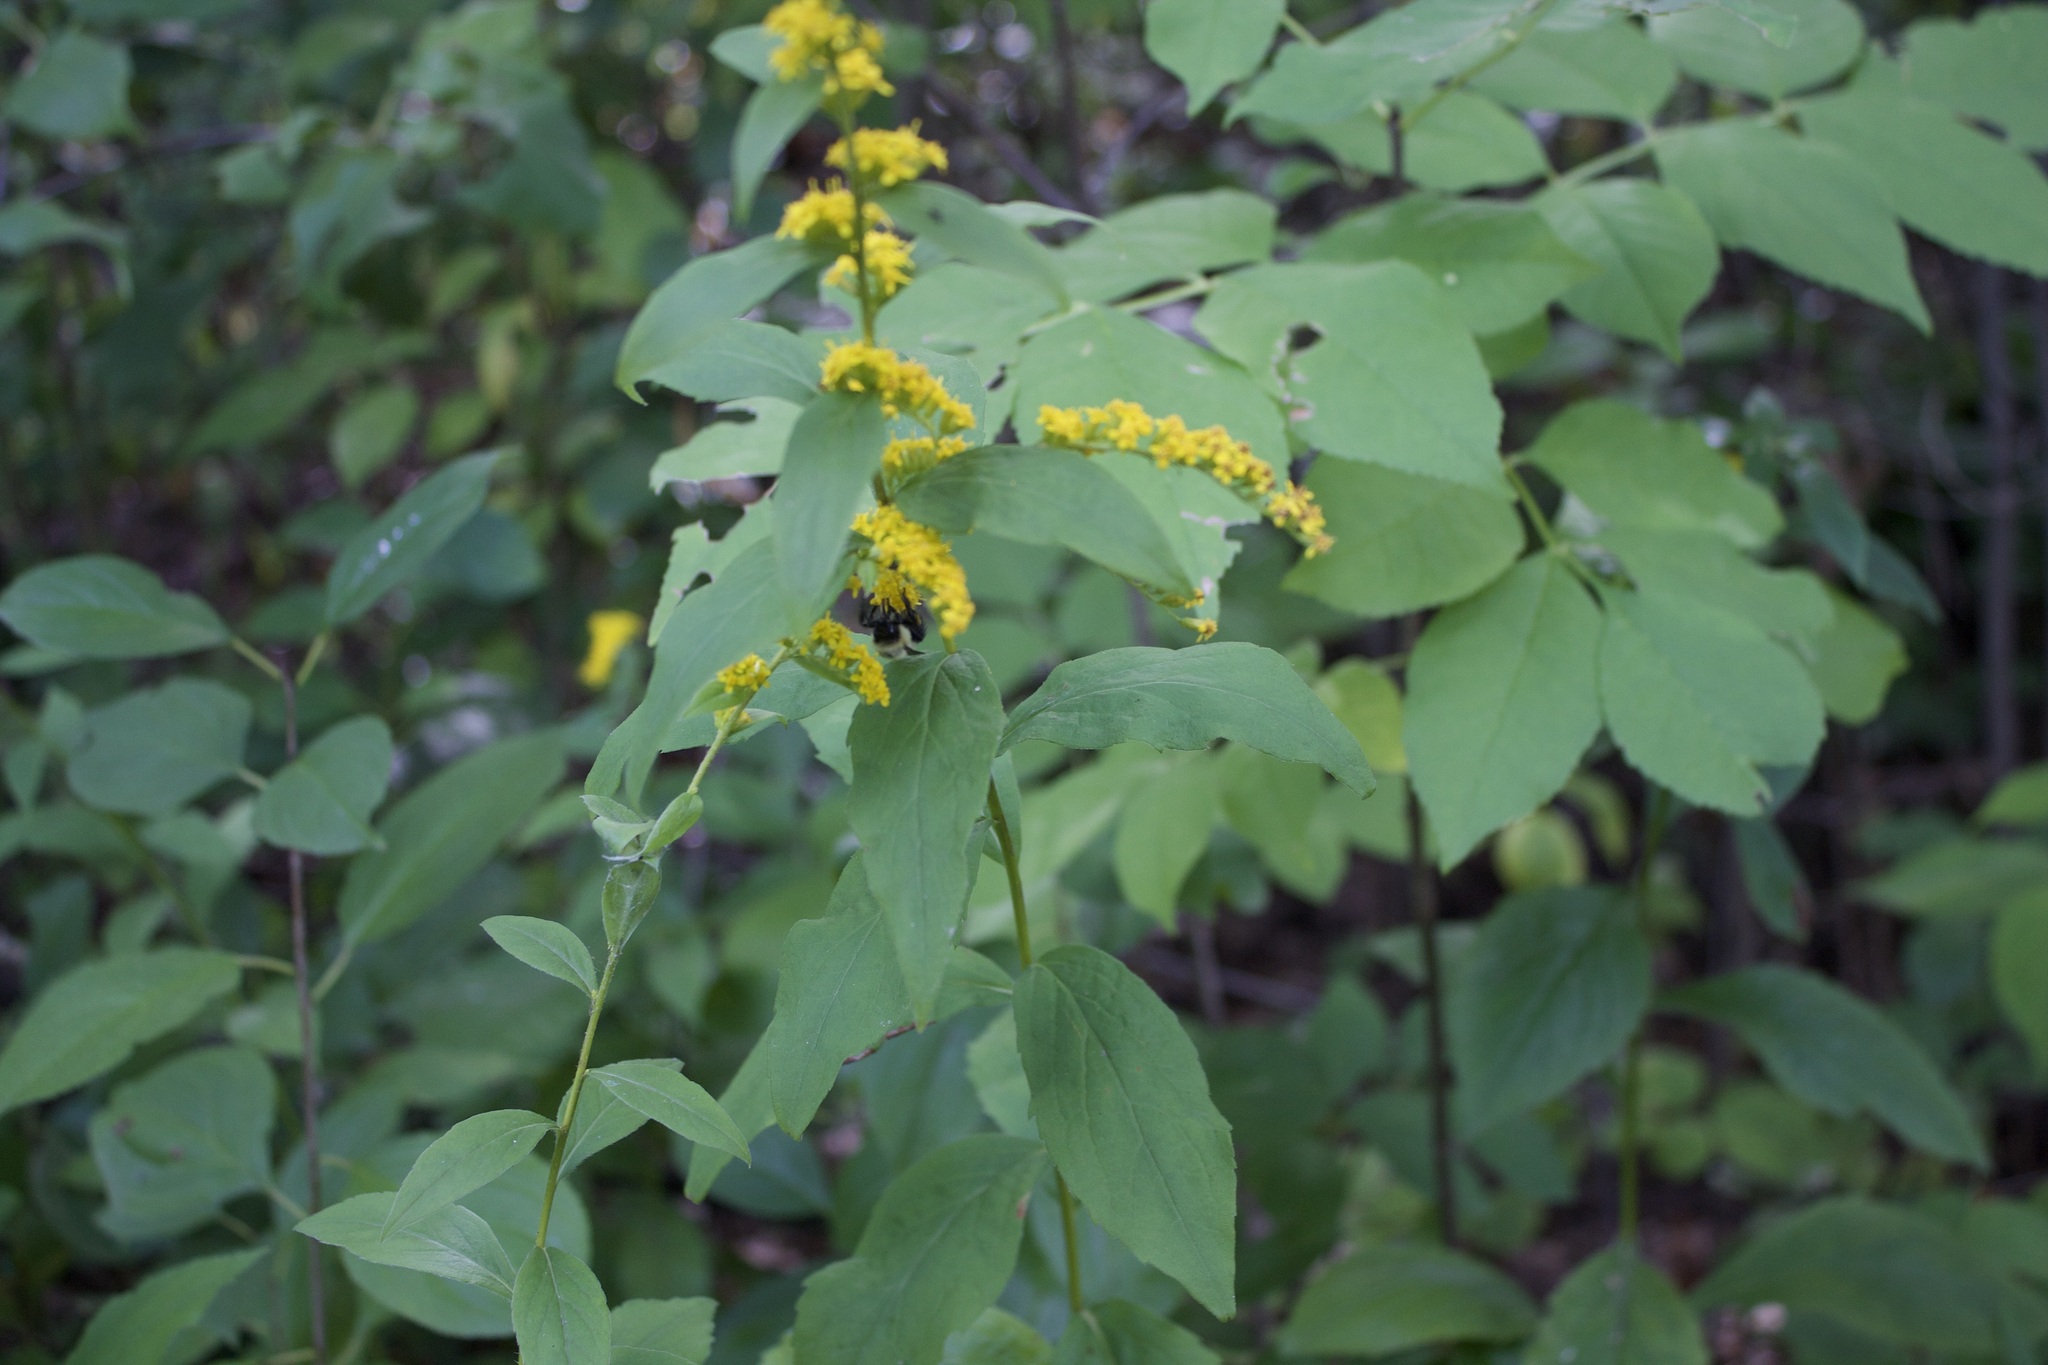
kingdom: Animalia
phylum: Arthropoda
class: Insecta
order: Hymenoptera
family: Apidae
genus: Bombus
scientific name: Bombus impatiens
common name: Common eastern bumble bee
